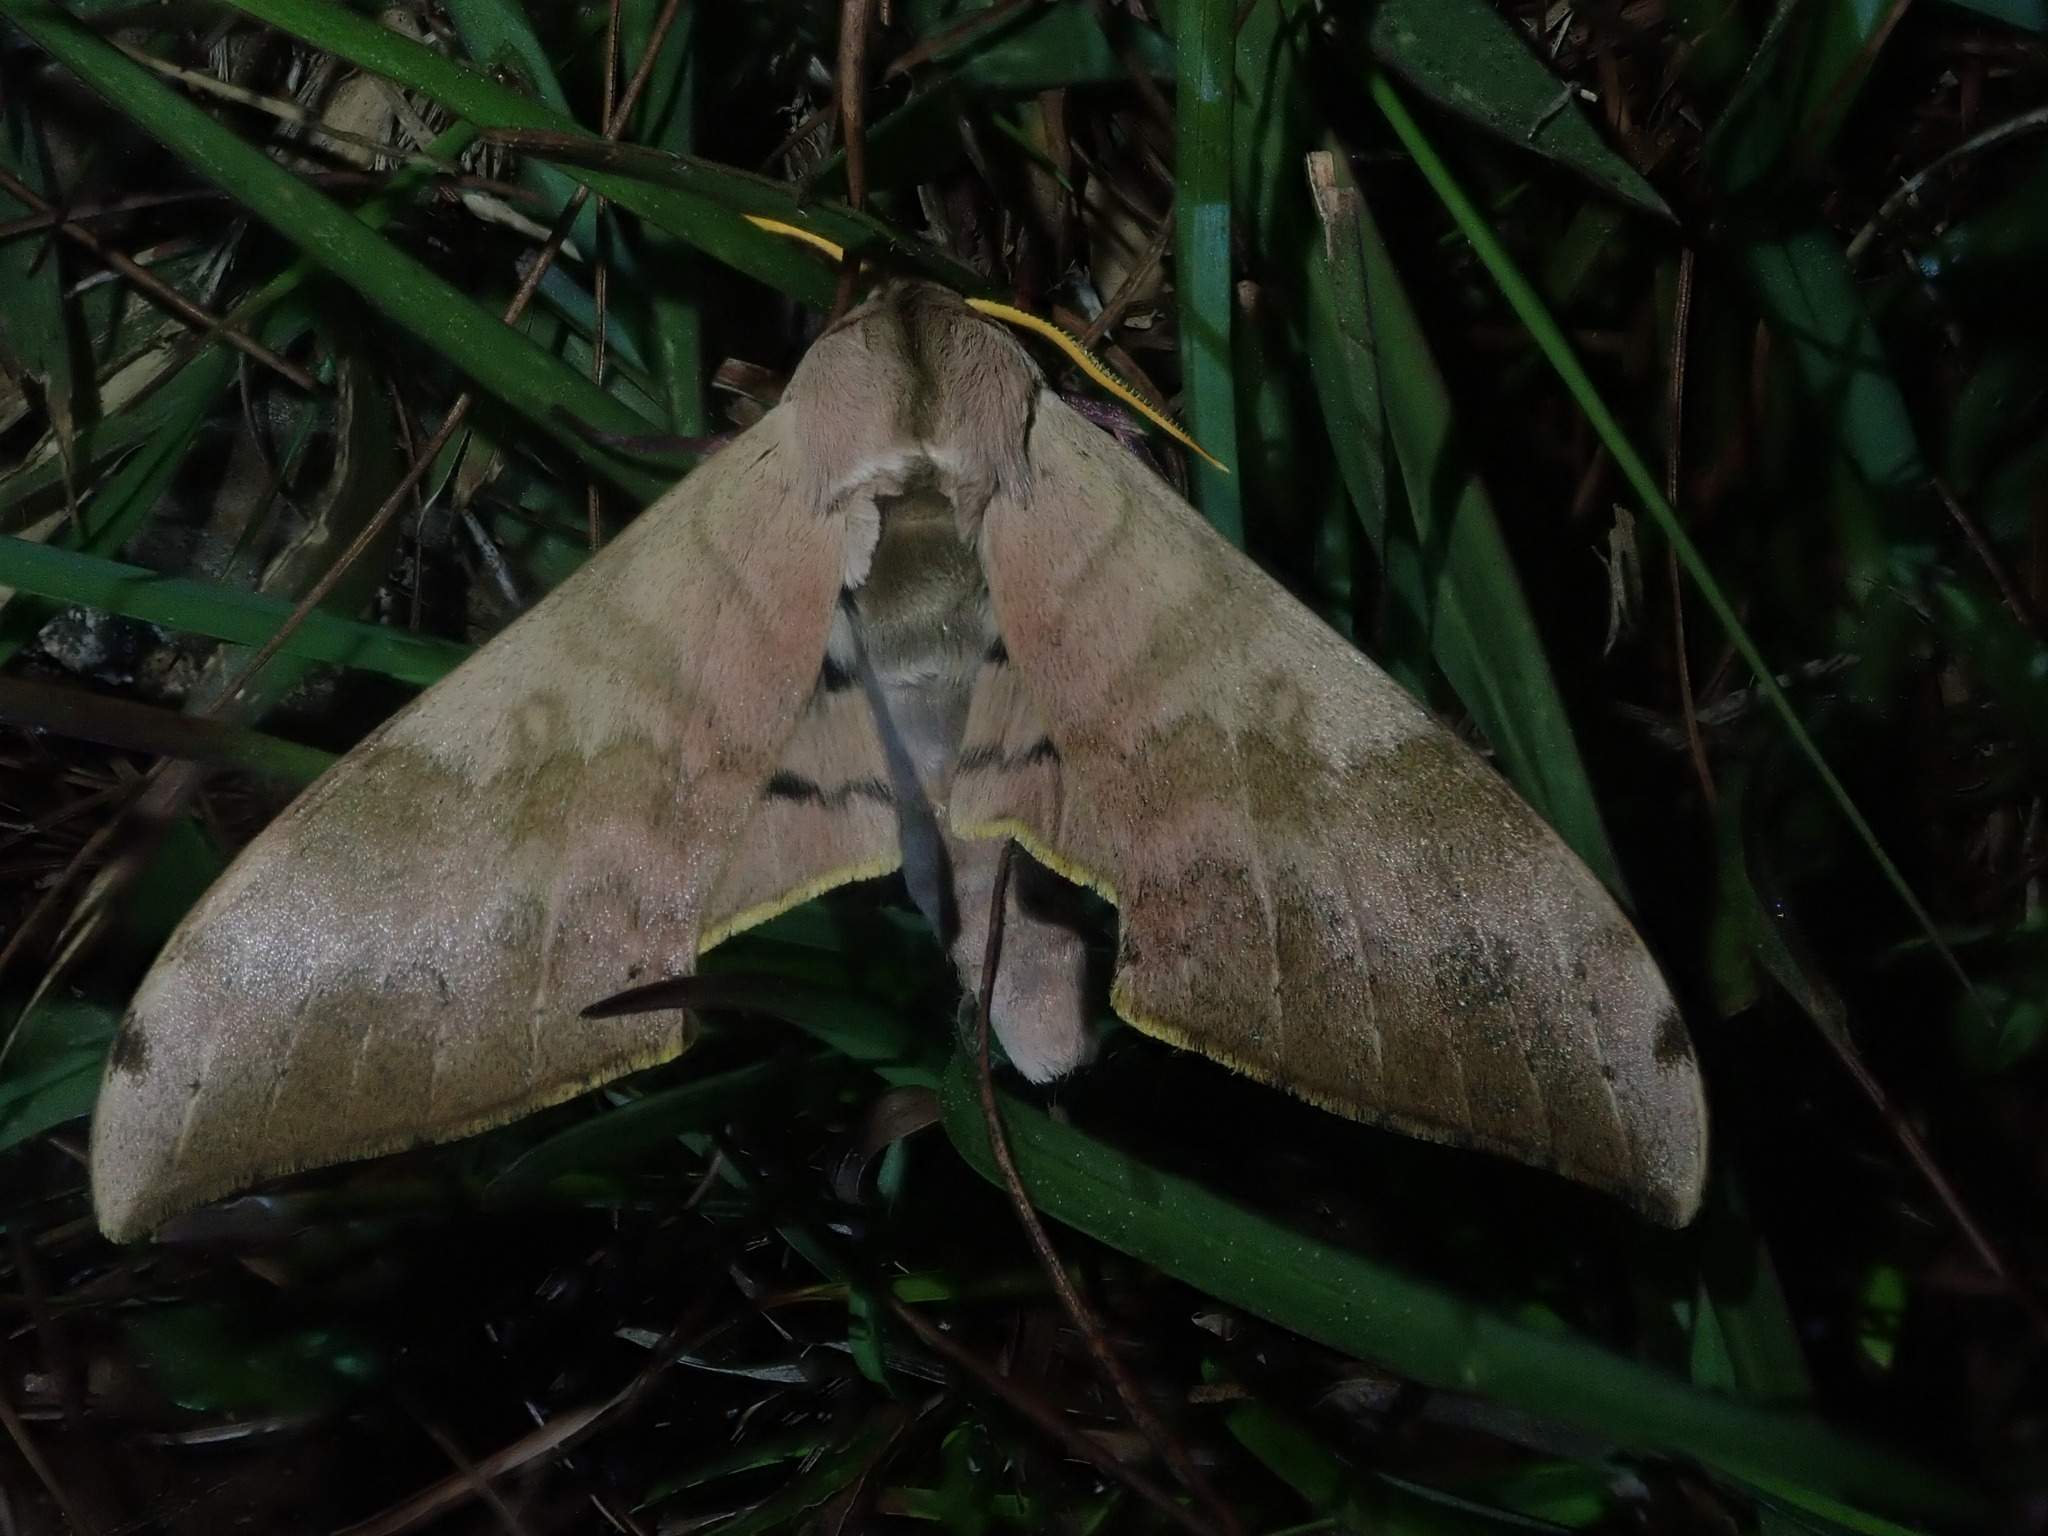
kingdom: Animalia
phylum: Arthropoda
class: Insecta
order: Lepidoptera
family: Sphingidae
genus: Pseudoclanis
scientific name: Pseudoclanis postica
